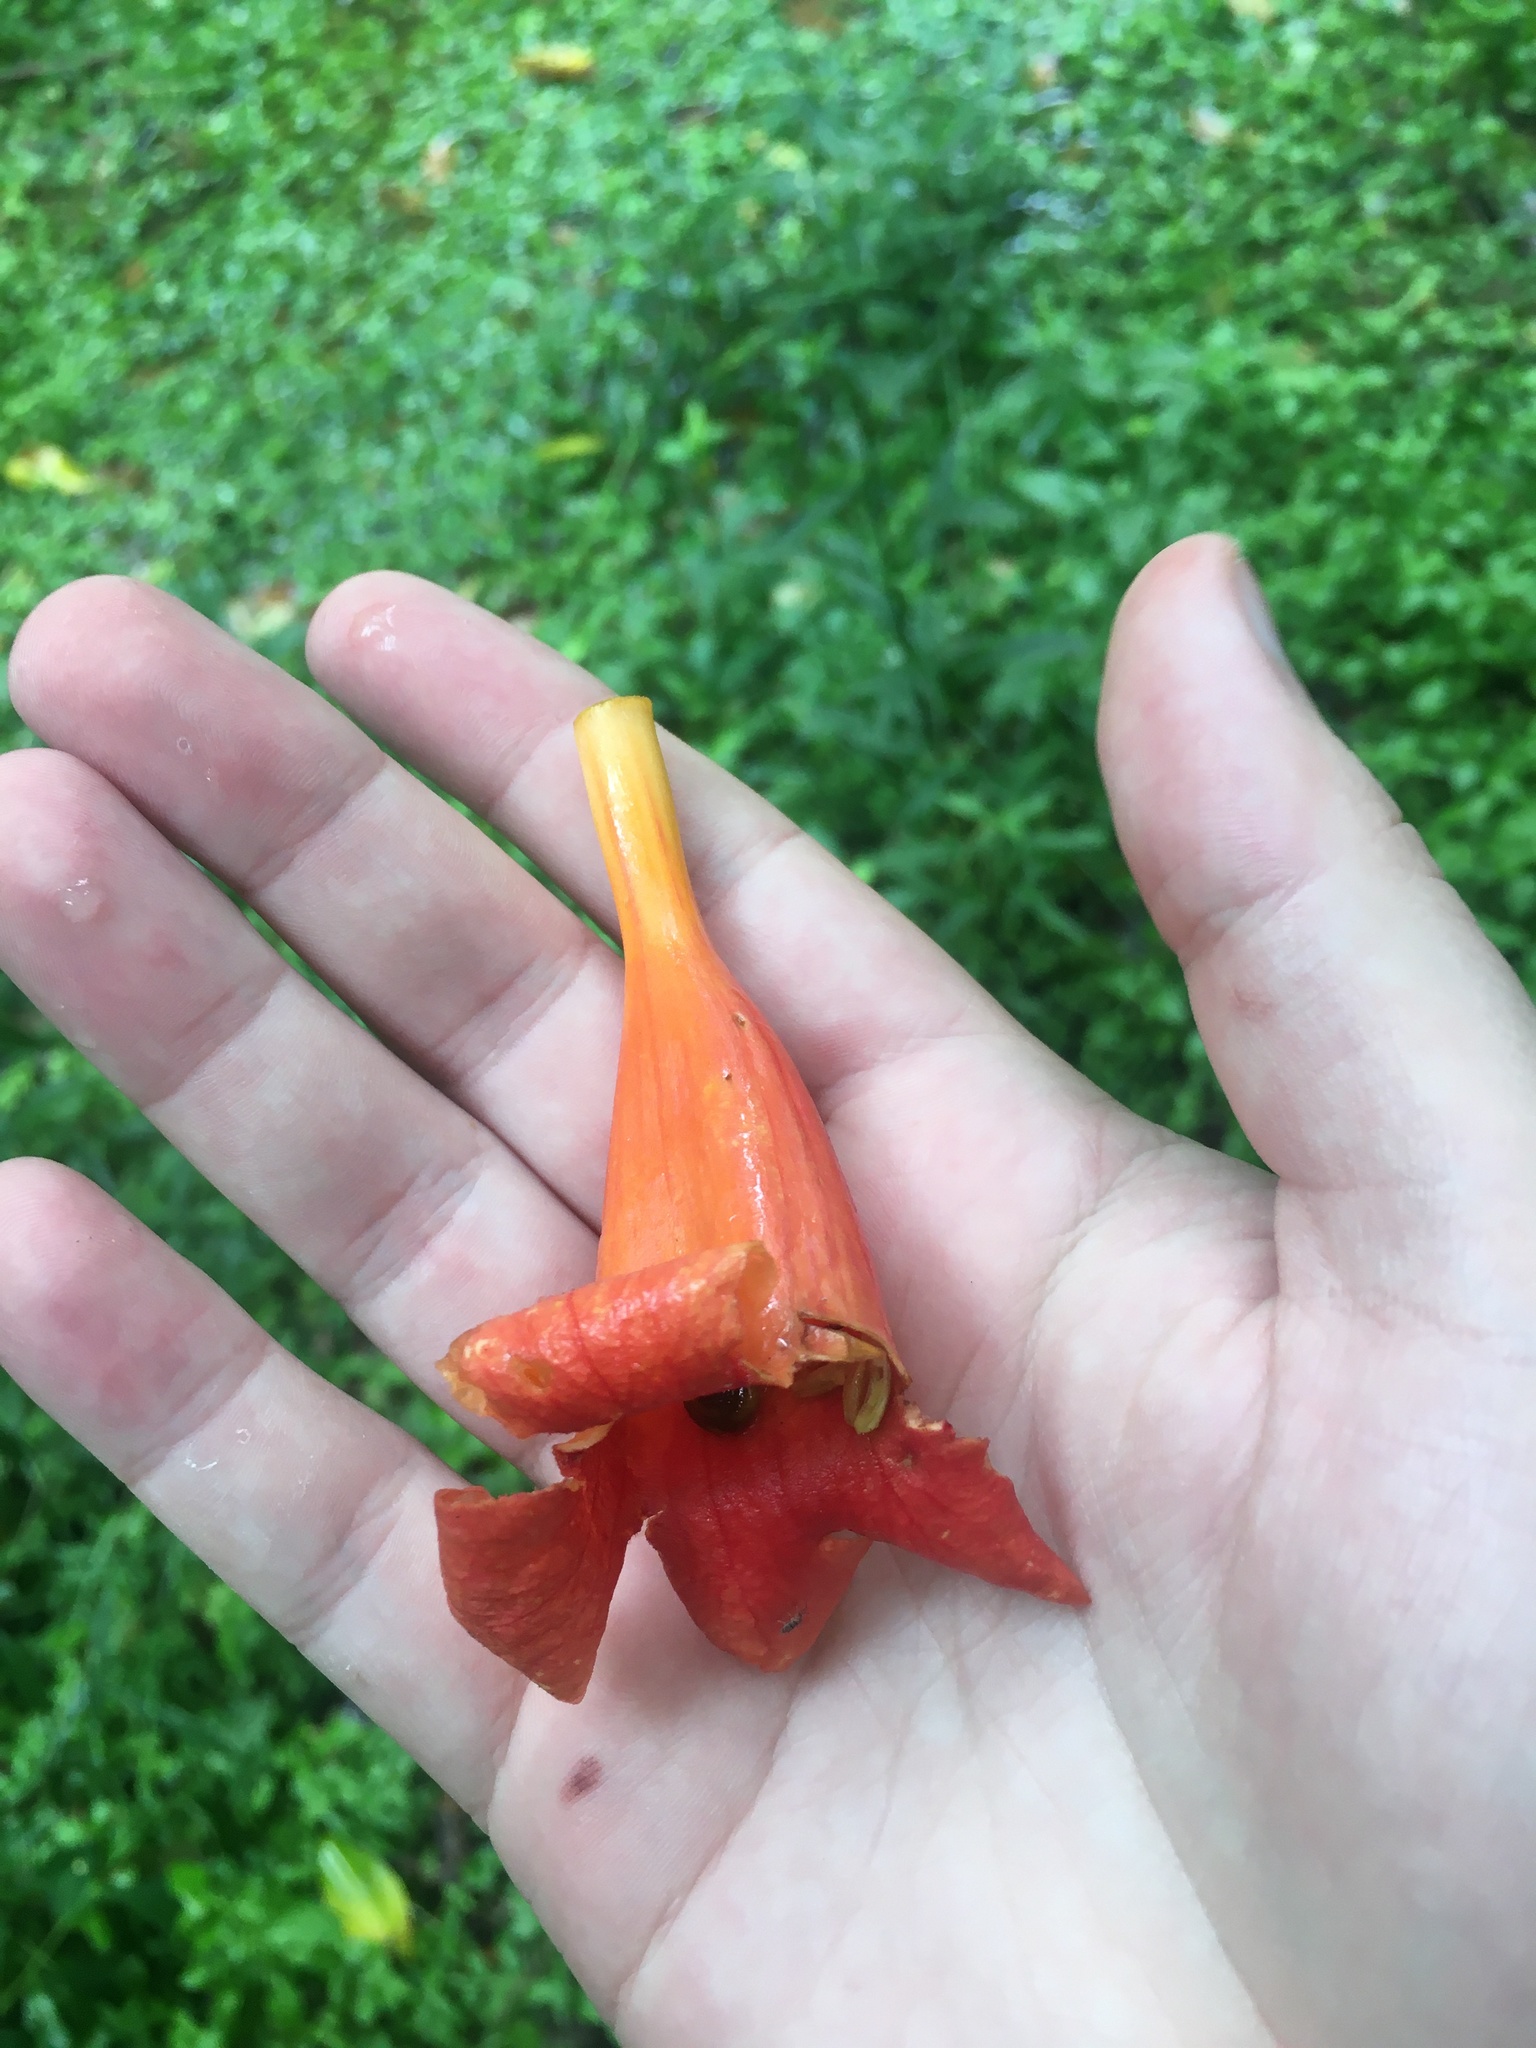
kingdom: Plantae
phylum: Tracheophyta
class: Magnoliopsida
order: Lamiales
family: Bignoniaceae
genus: Campsis
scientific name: Campsis radicans
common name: Trumpet-creeper
